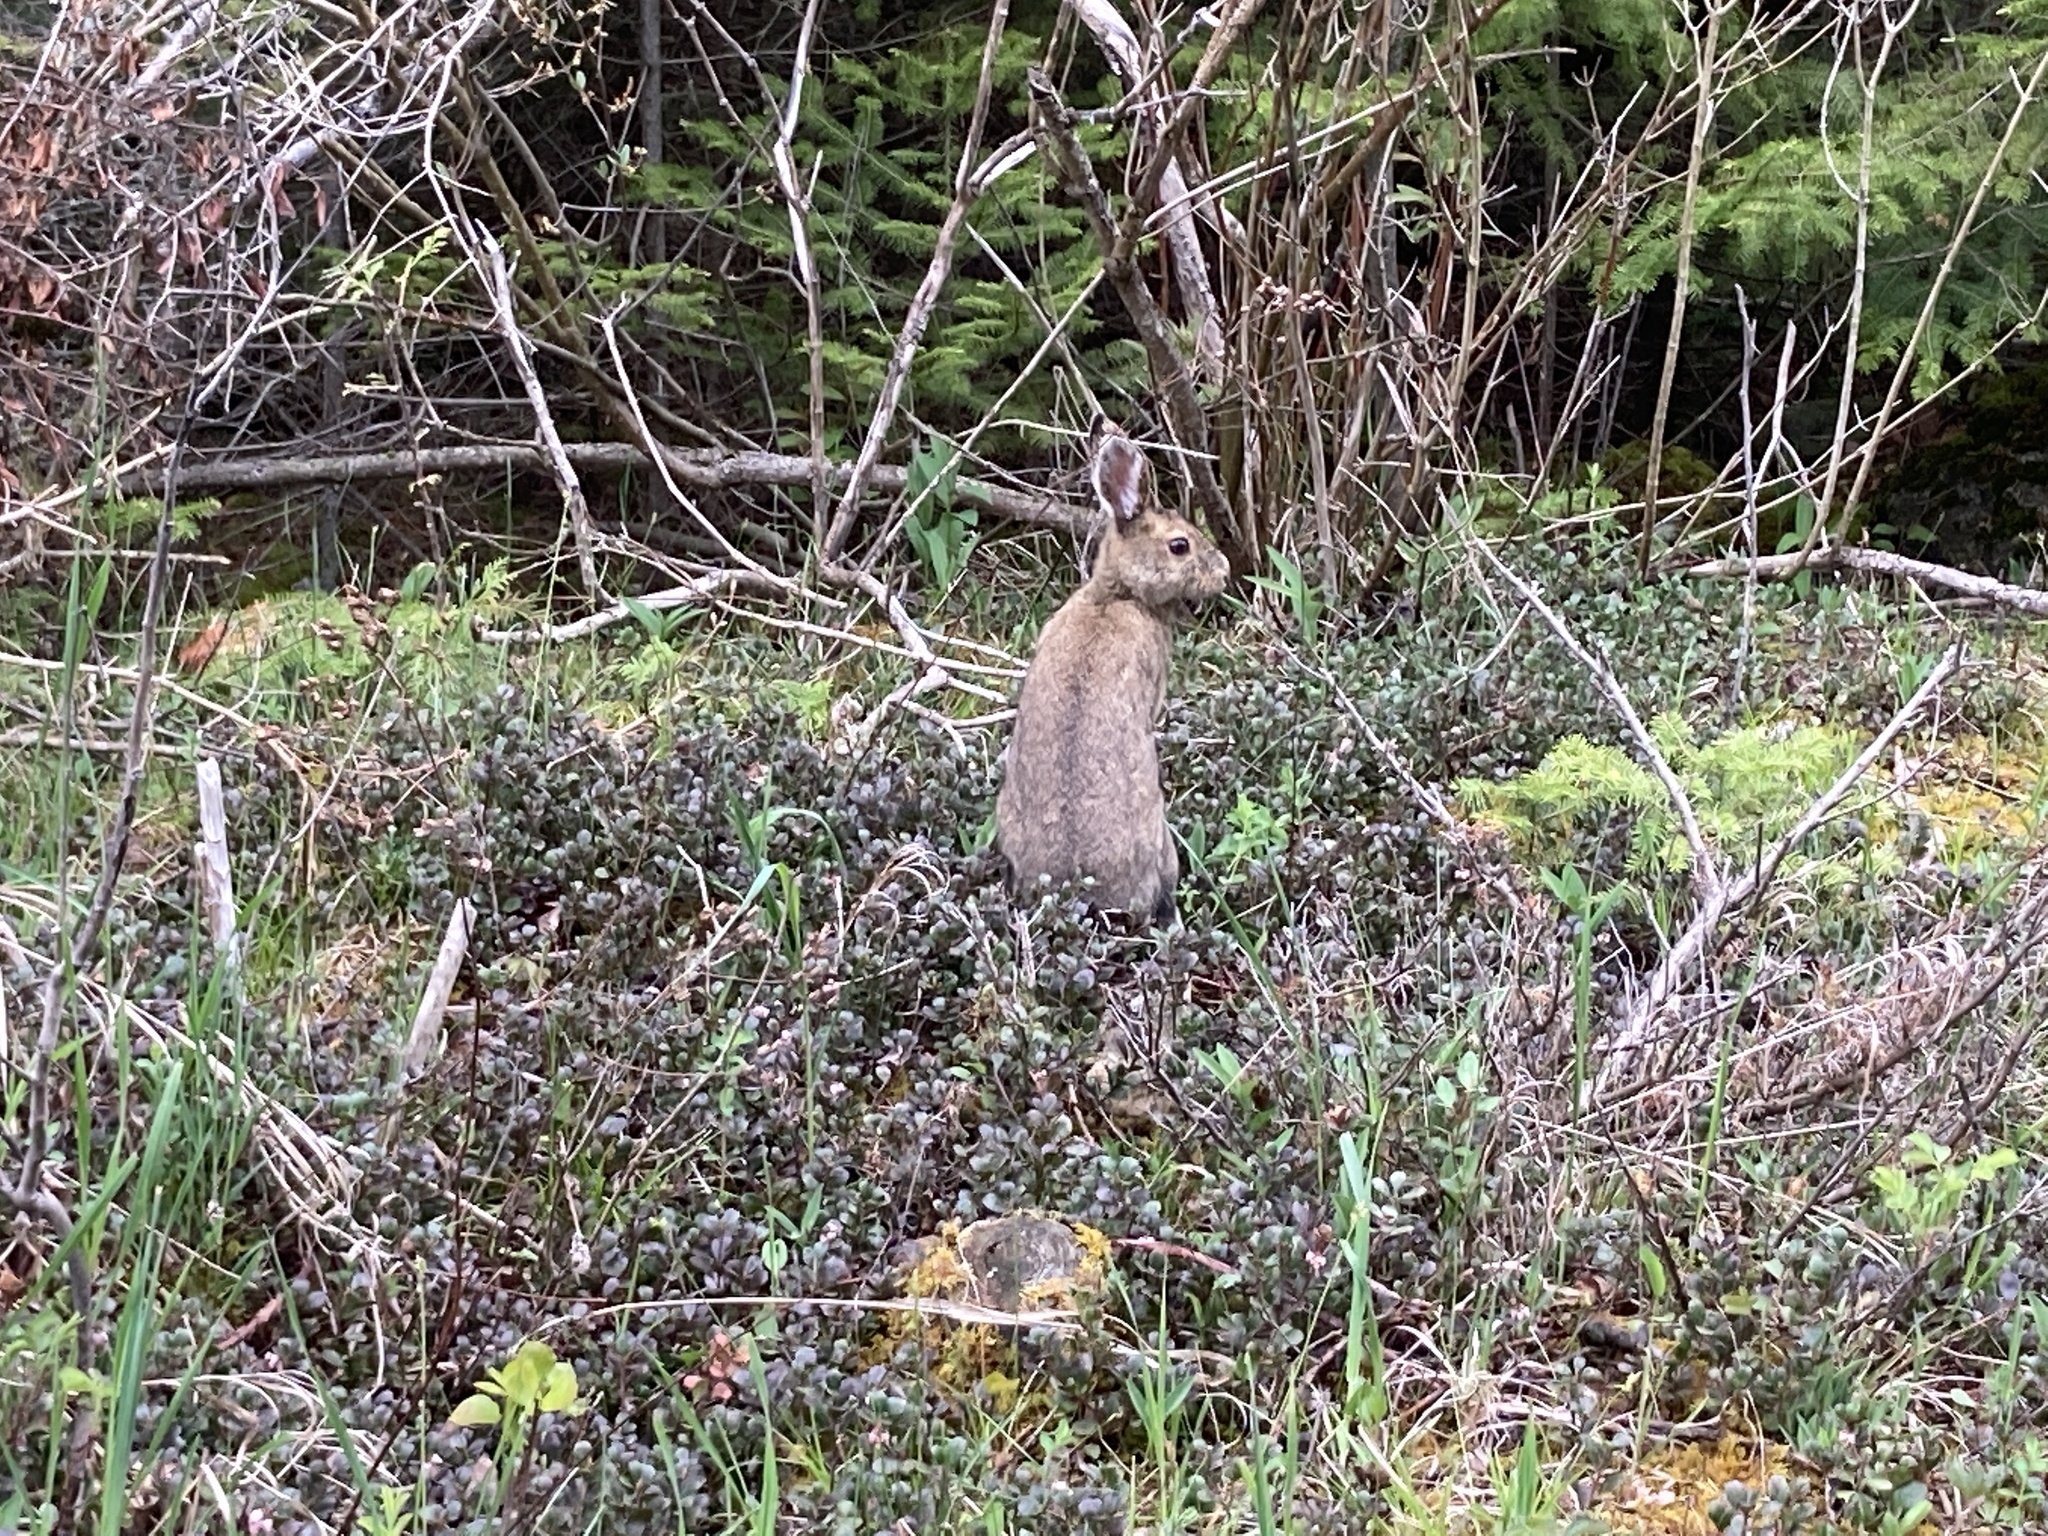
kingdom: Animalia
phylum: Chordata
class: Mammalia
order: Lagomorpha
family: Leporidae
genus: Lepus
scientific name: Lepus americanus
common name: Snowshoe hare
